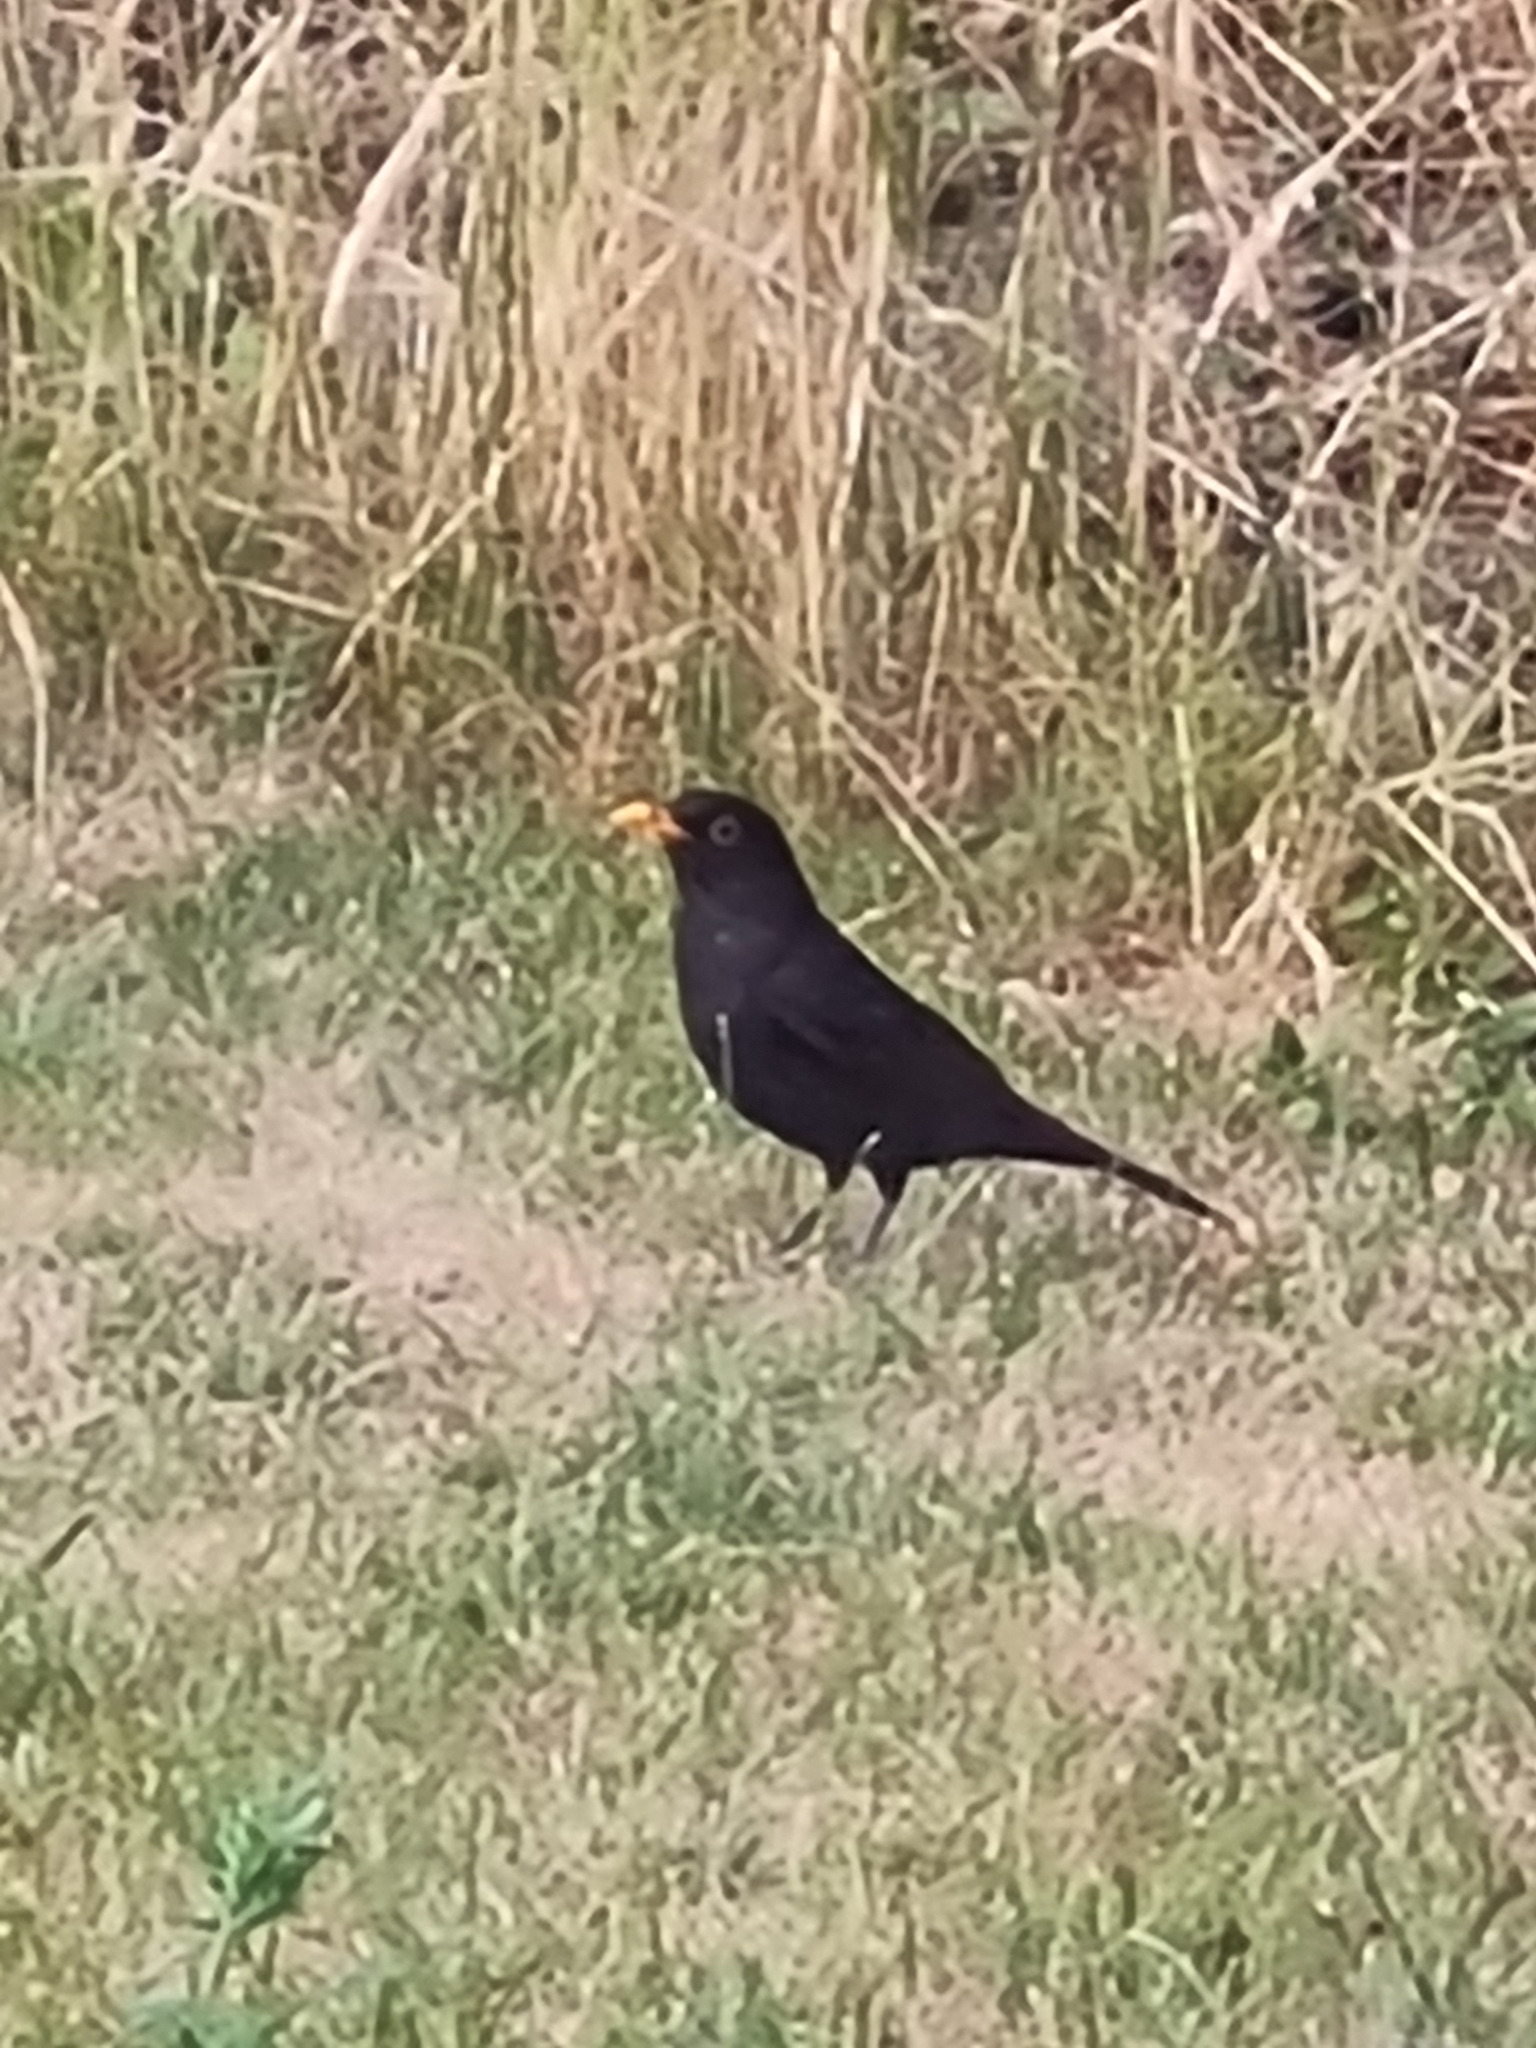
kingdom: Animalia
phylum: Chordata
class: Aves
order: Passeriformes
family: Turdidae
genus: Turdus
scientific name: Turdus merula
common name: Common blackbird
